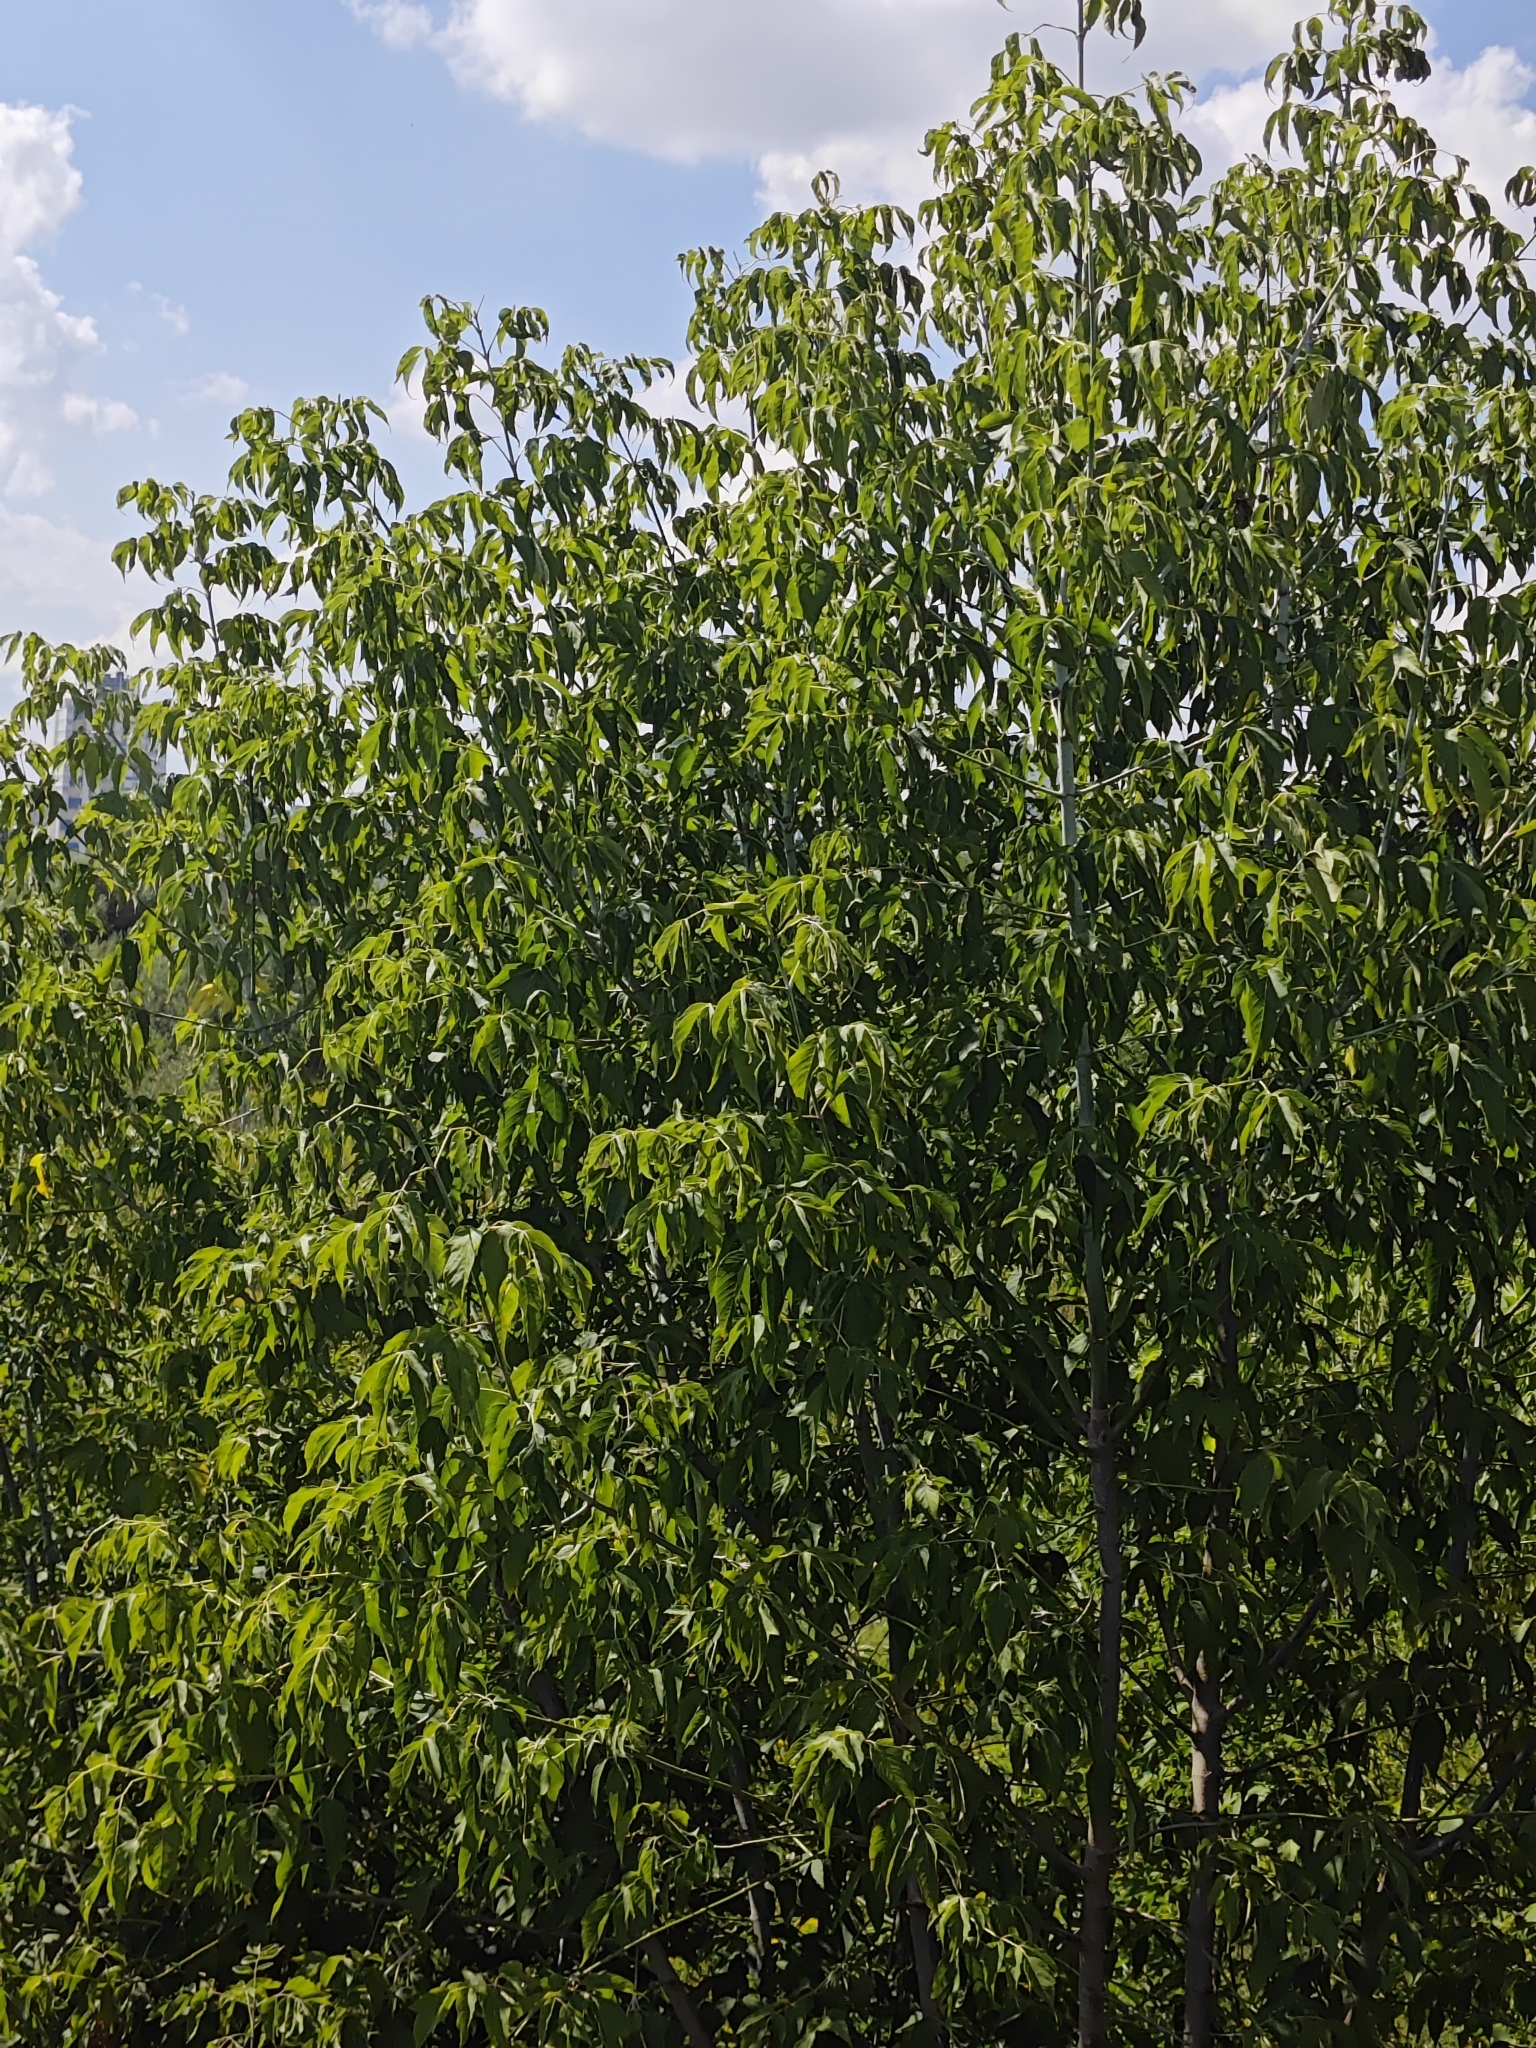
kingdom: Plantae
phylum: Tracheophyta
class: Magnoliopsida
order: Sapindales
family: Sapindaceae
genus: Acer
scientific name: Acer negundo
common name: Ashleaf maple
